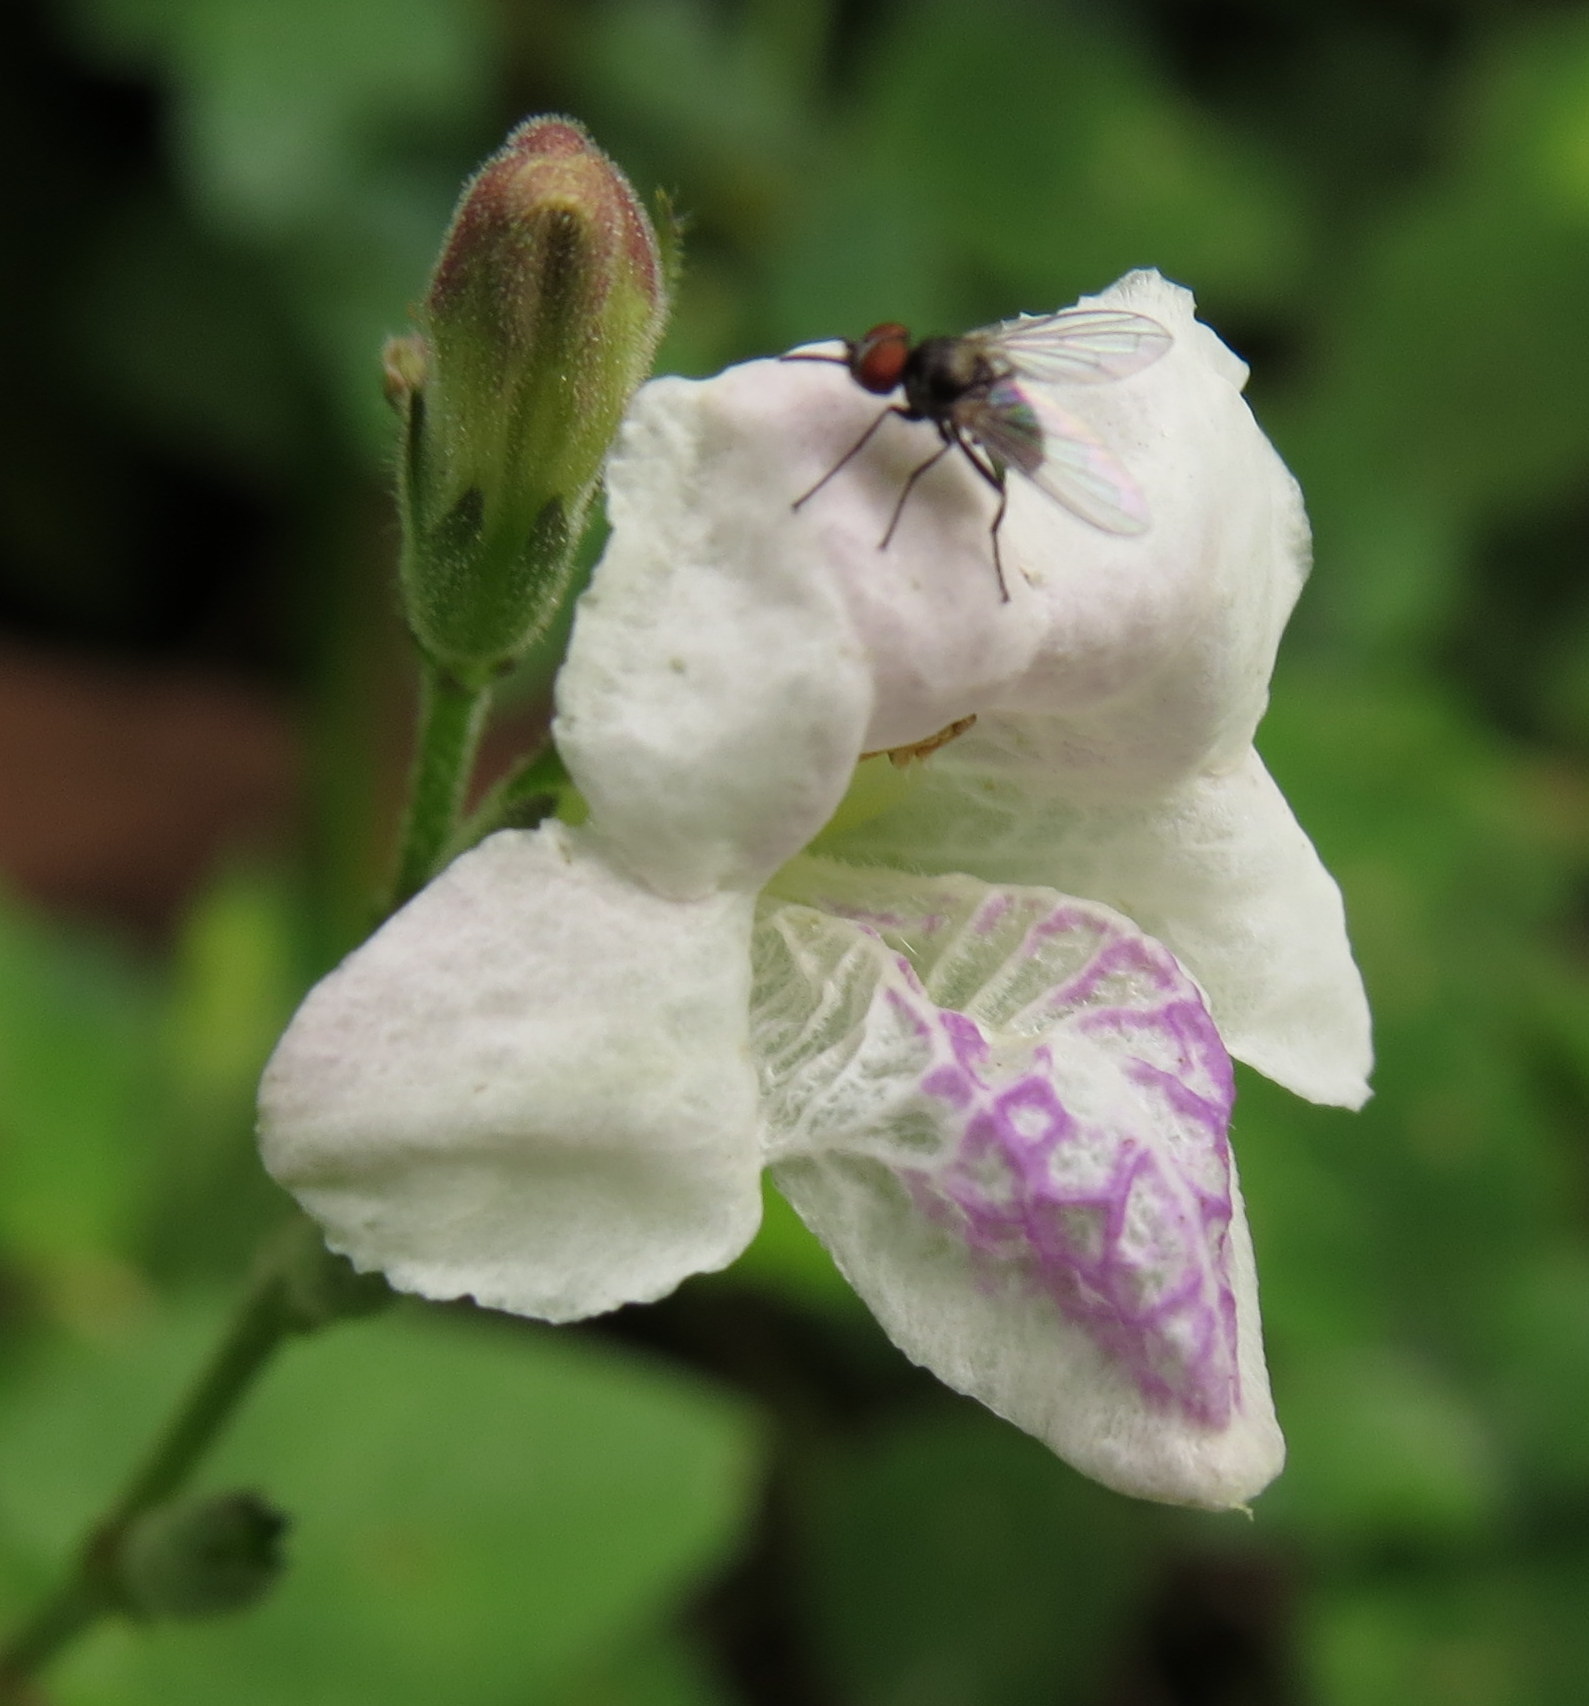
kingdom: Plantae
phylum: Tracheophyta
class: Magnoliopsida
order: Lamiales
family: Acanthaceae
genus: Asystasia
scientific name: Asystasia intrusa
